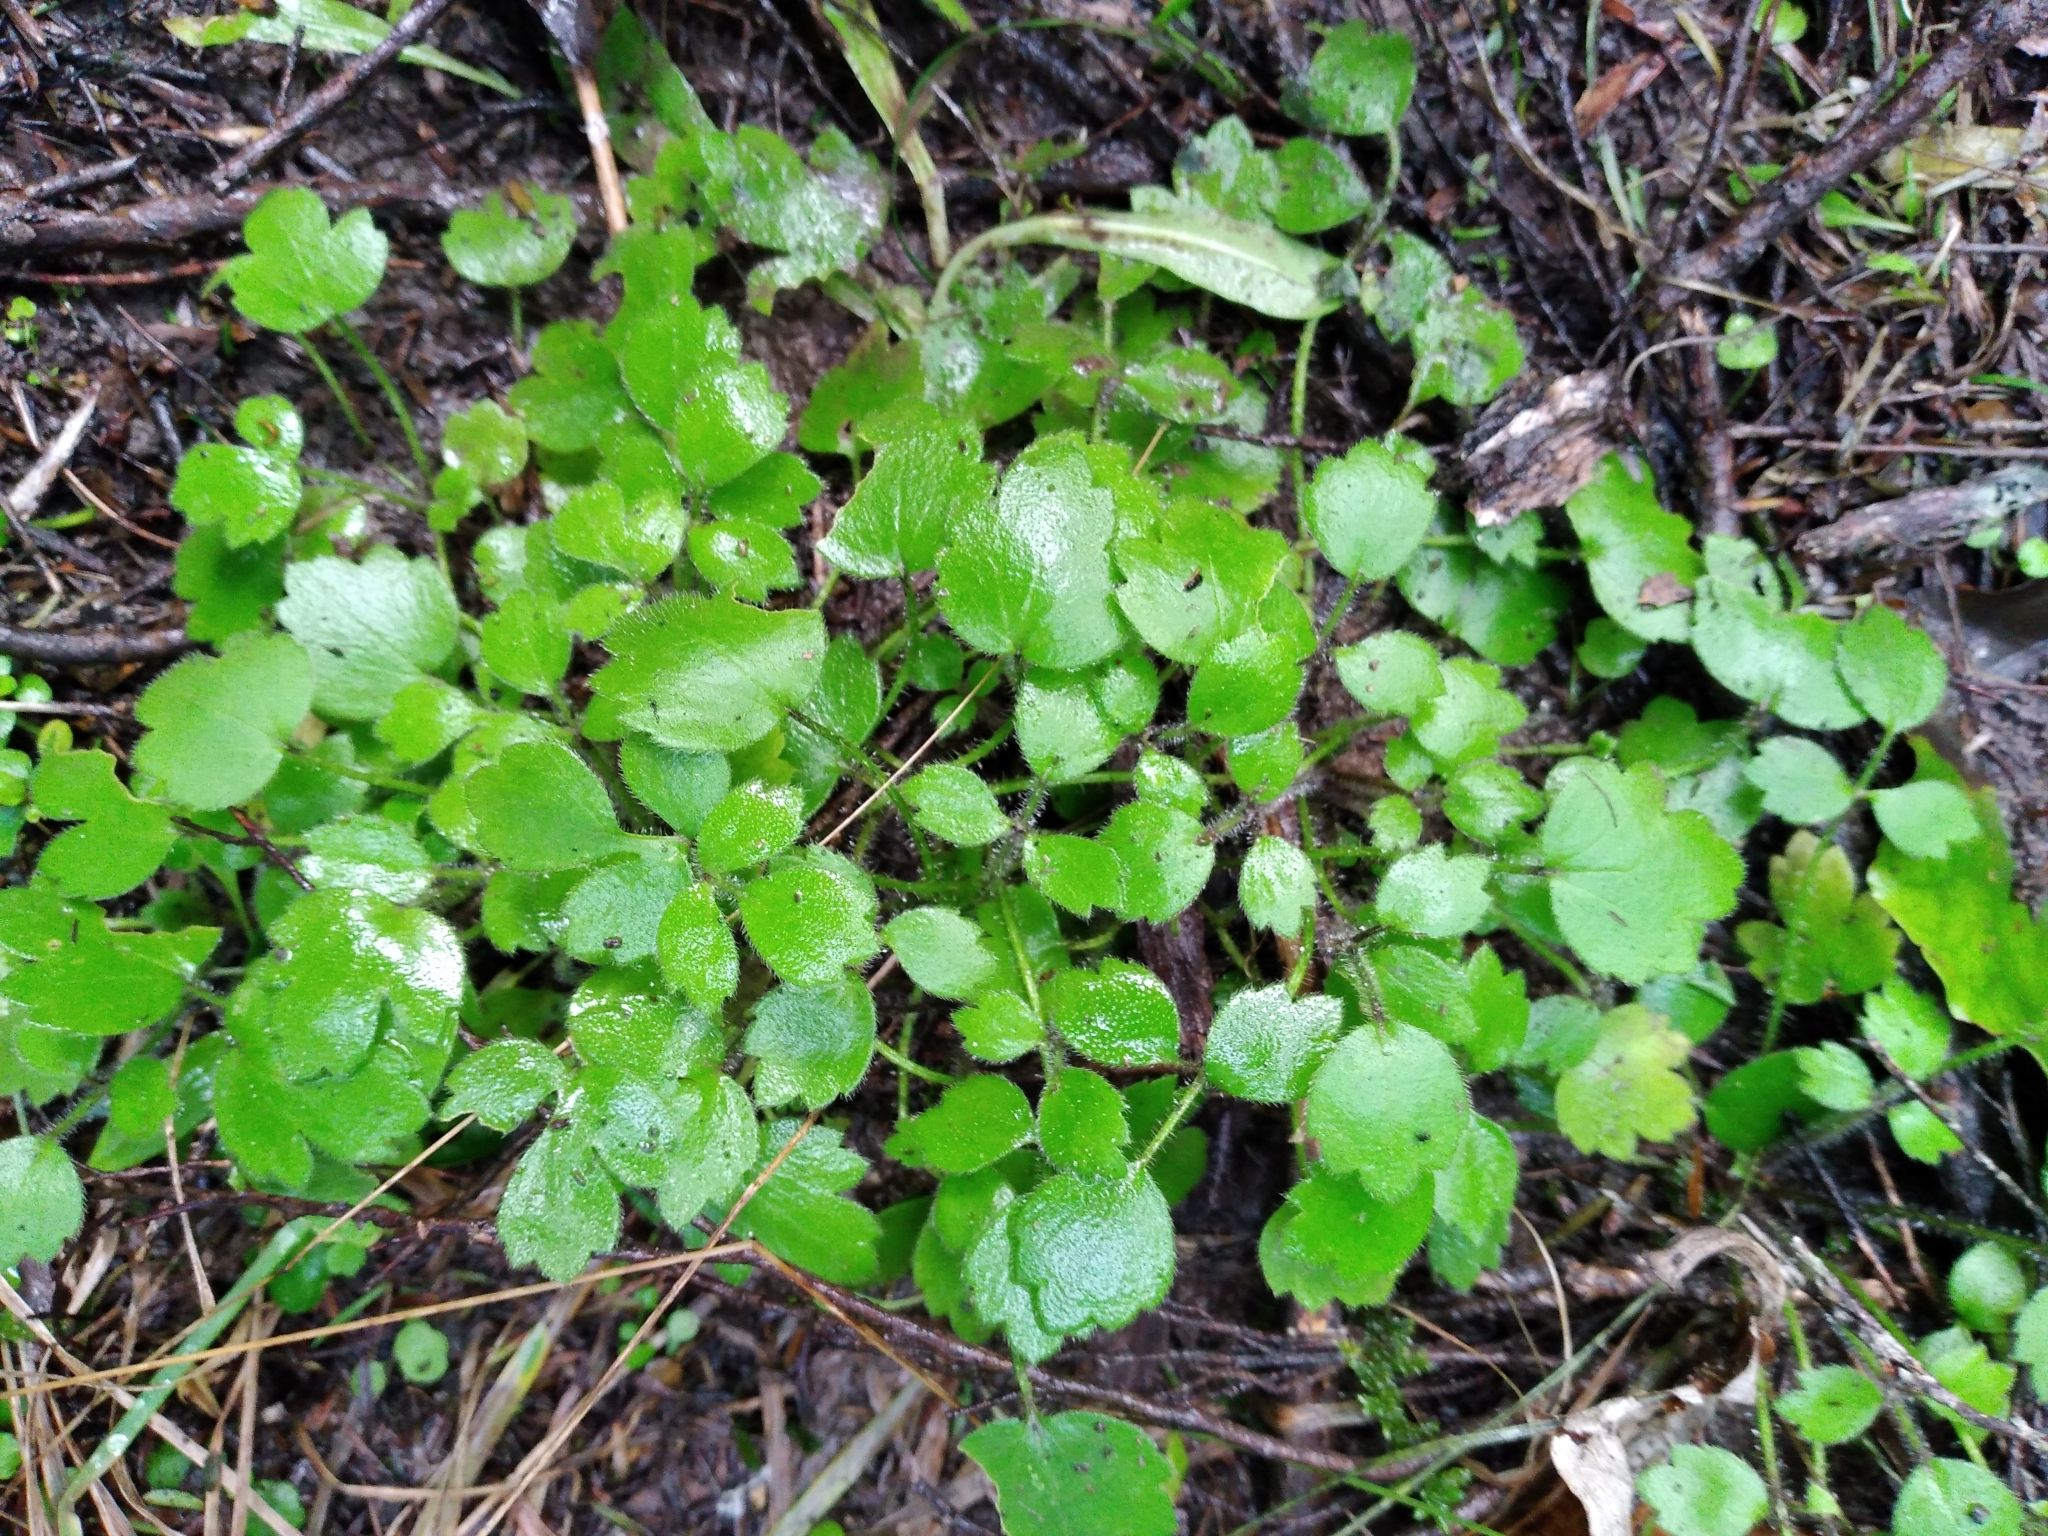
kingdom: Plantae
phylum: Tracheophyta
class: Magnoliopsida
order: Ranunculales
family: Ranunculaceae
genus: Ranunculus
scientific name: Ranunculus reflexus
